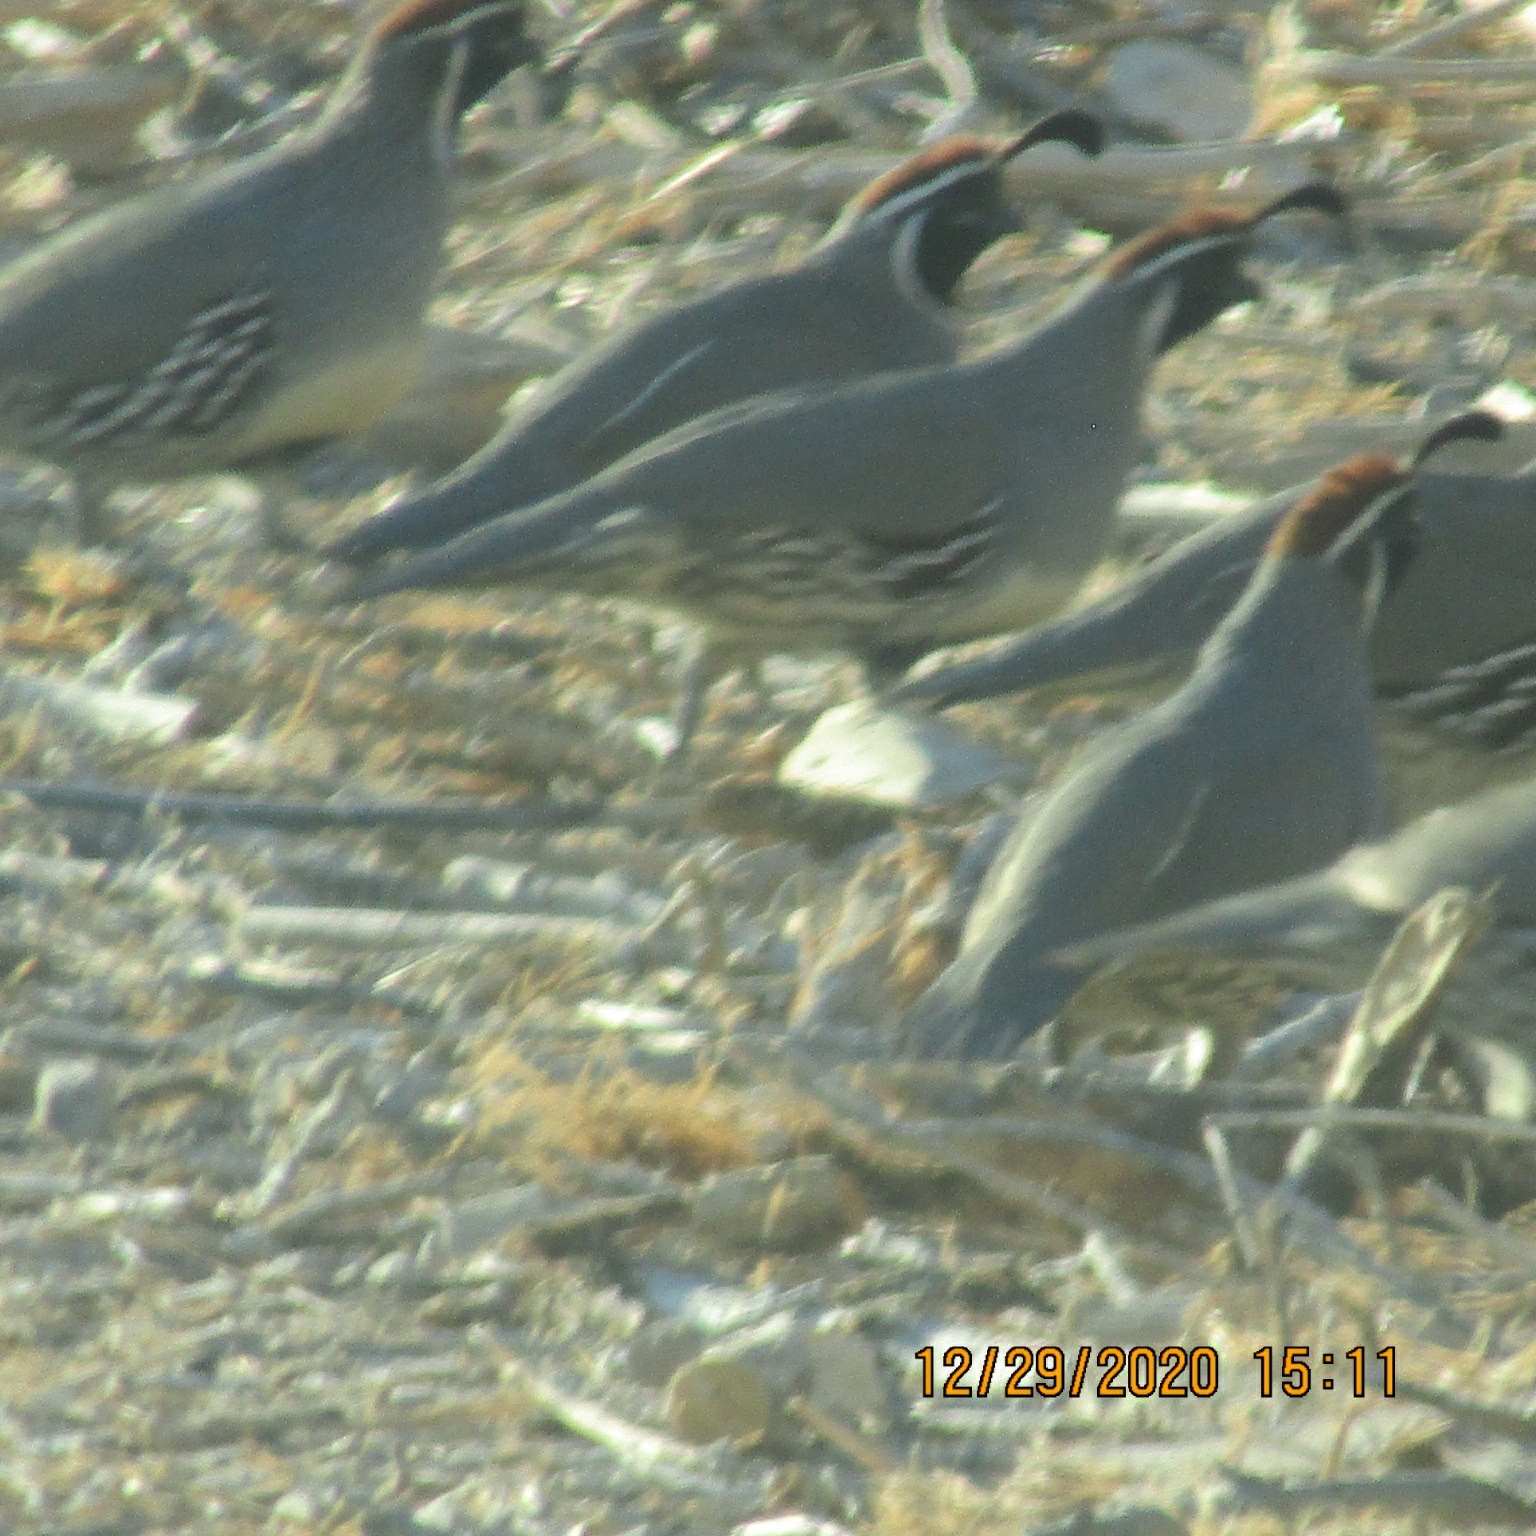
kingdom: Animalia
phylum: Chordata
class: Aves
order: Galliformes
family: Odontophoridae
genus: Callipepla
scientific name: Callipepla gambelii
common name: Gambel's quail
